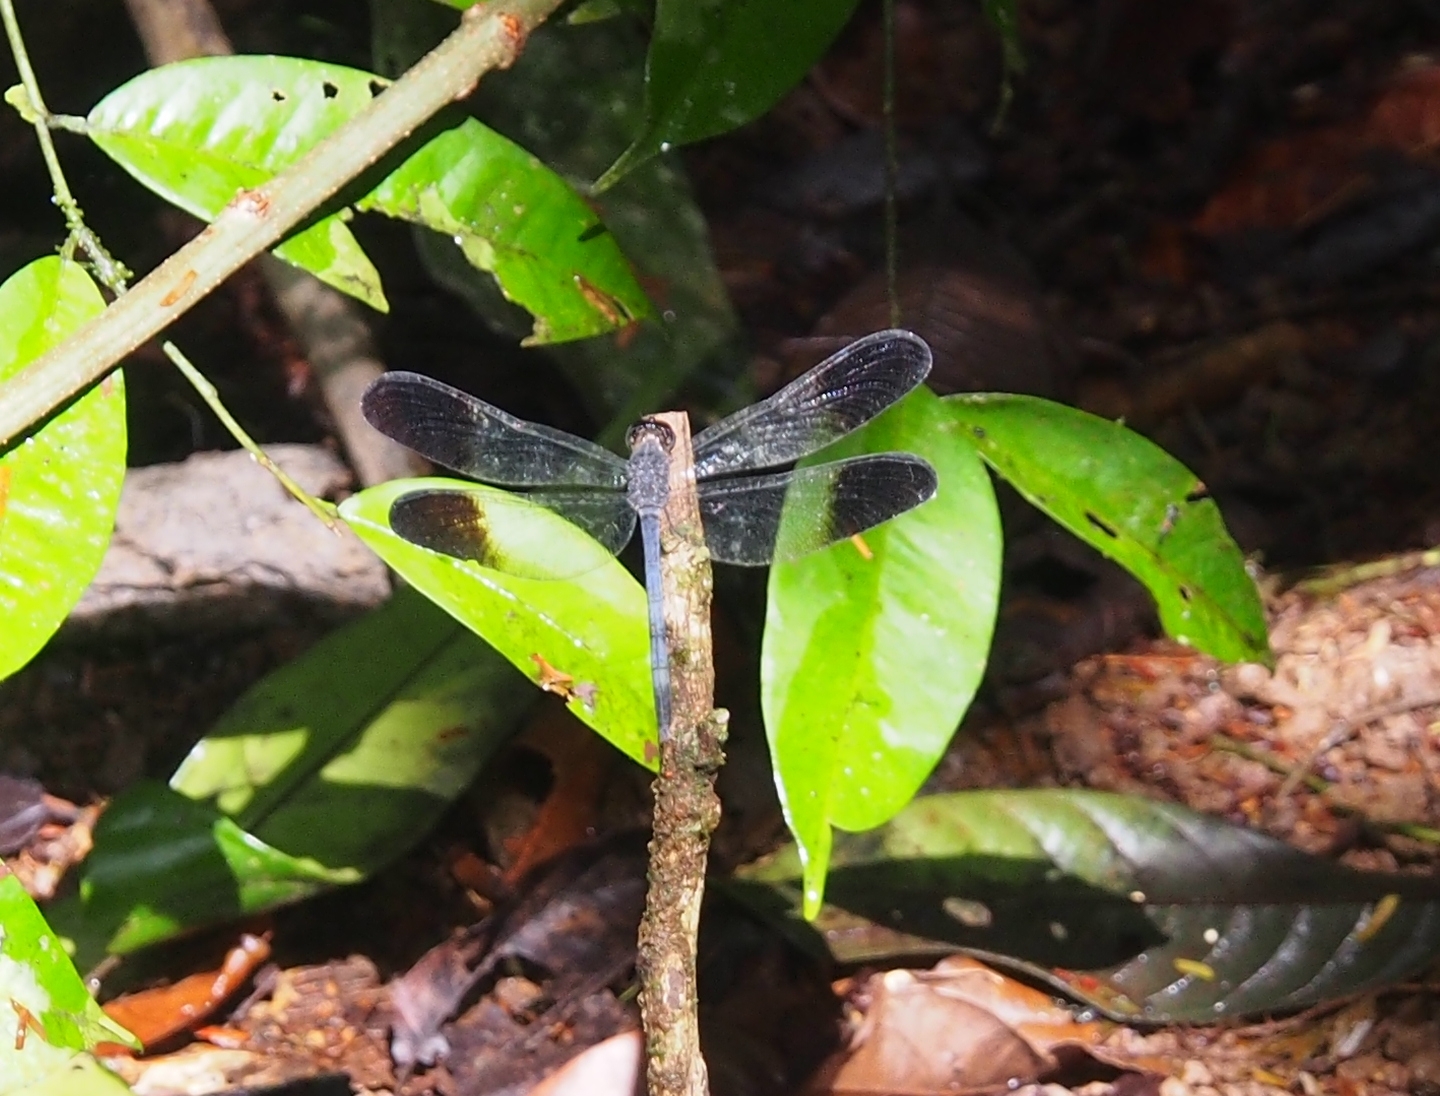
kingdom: Animalia
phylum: Arthropoda
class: Insecta
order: Odonata
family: Libellulidae
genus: Uracis
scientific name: Uracis fastigiata
